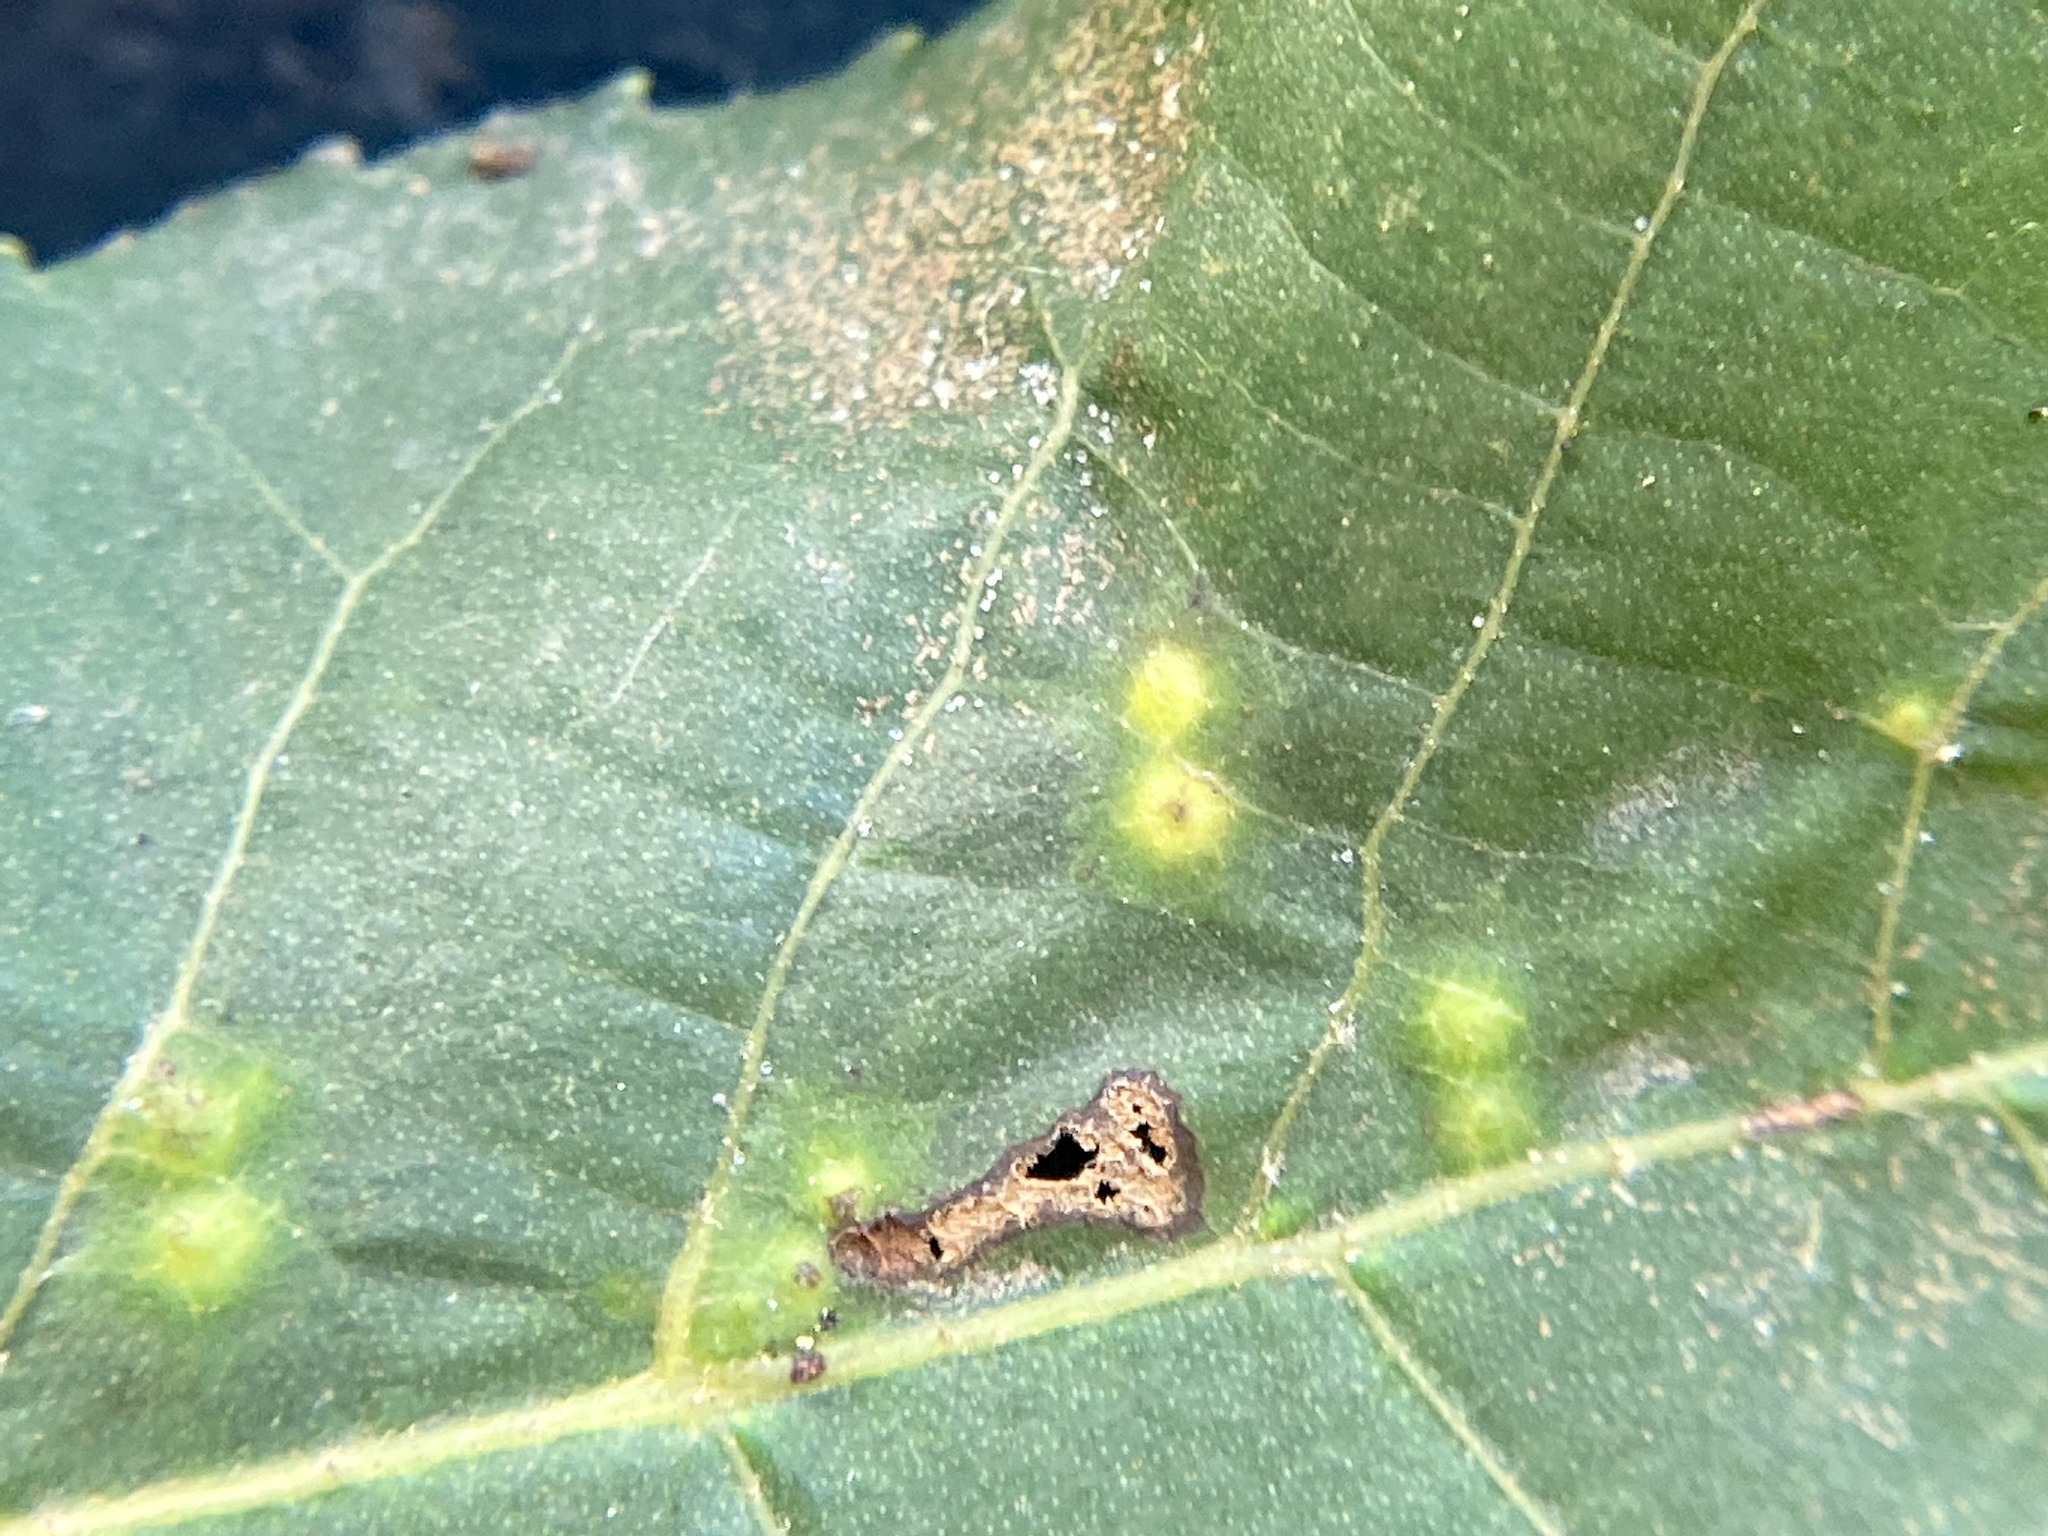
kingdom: Animalia
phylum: Arthropoda
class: Insecta
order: Diptera
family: Cecidomyiidae
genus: Caryomyia
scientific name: Caryomyia tubicola
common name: Hickory bullet gall midge
